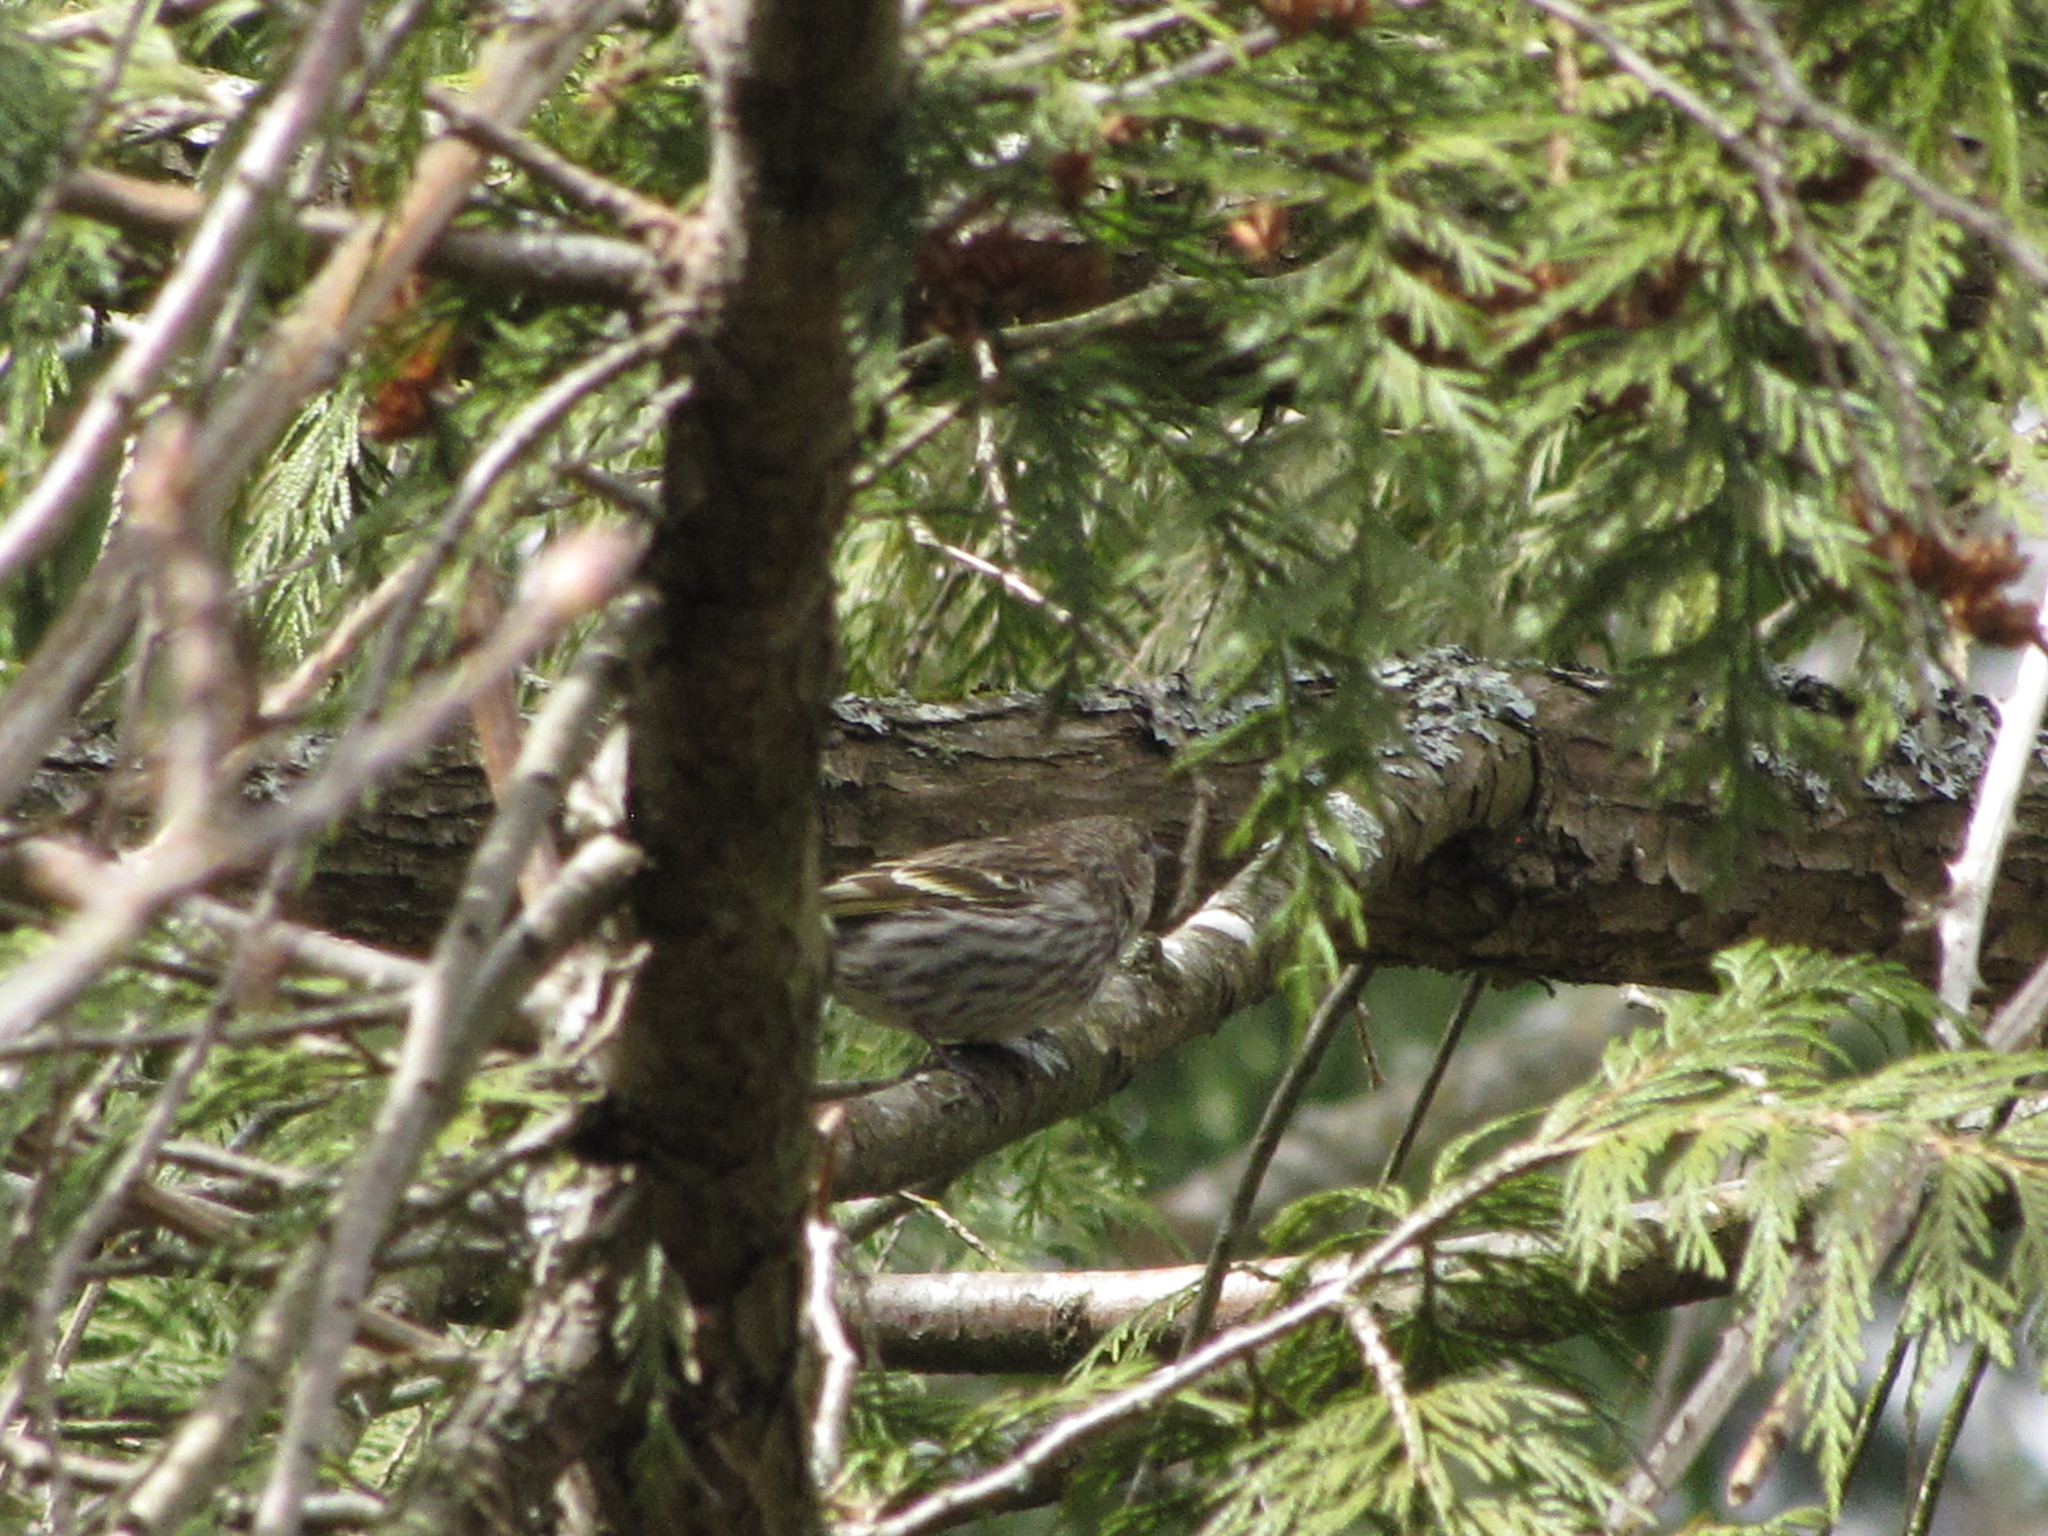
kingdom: Animalia
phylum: Chordata
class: Aves
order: Passeriformes
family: Fringillidae
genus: Spinus
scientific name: Spinus pinus
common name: Pine siskin
